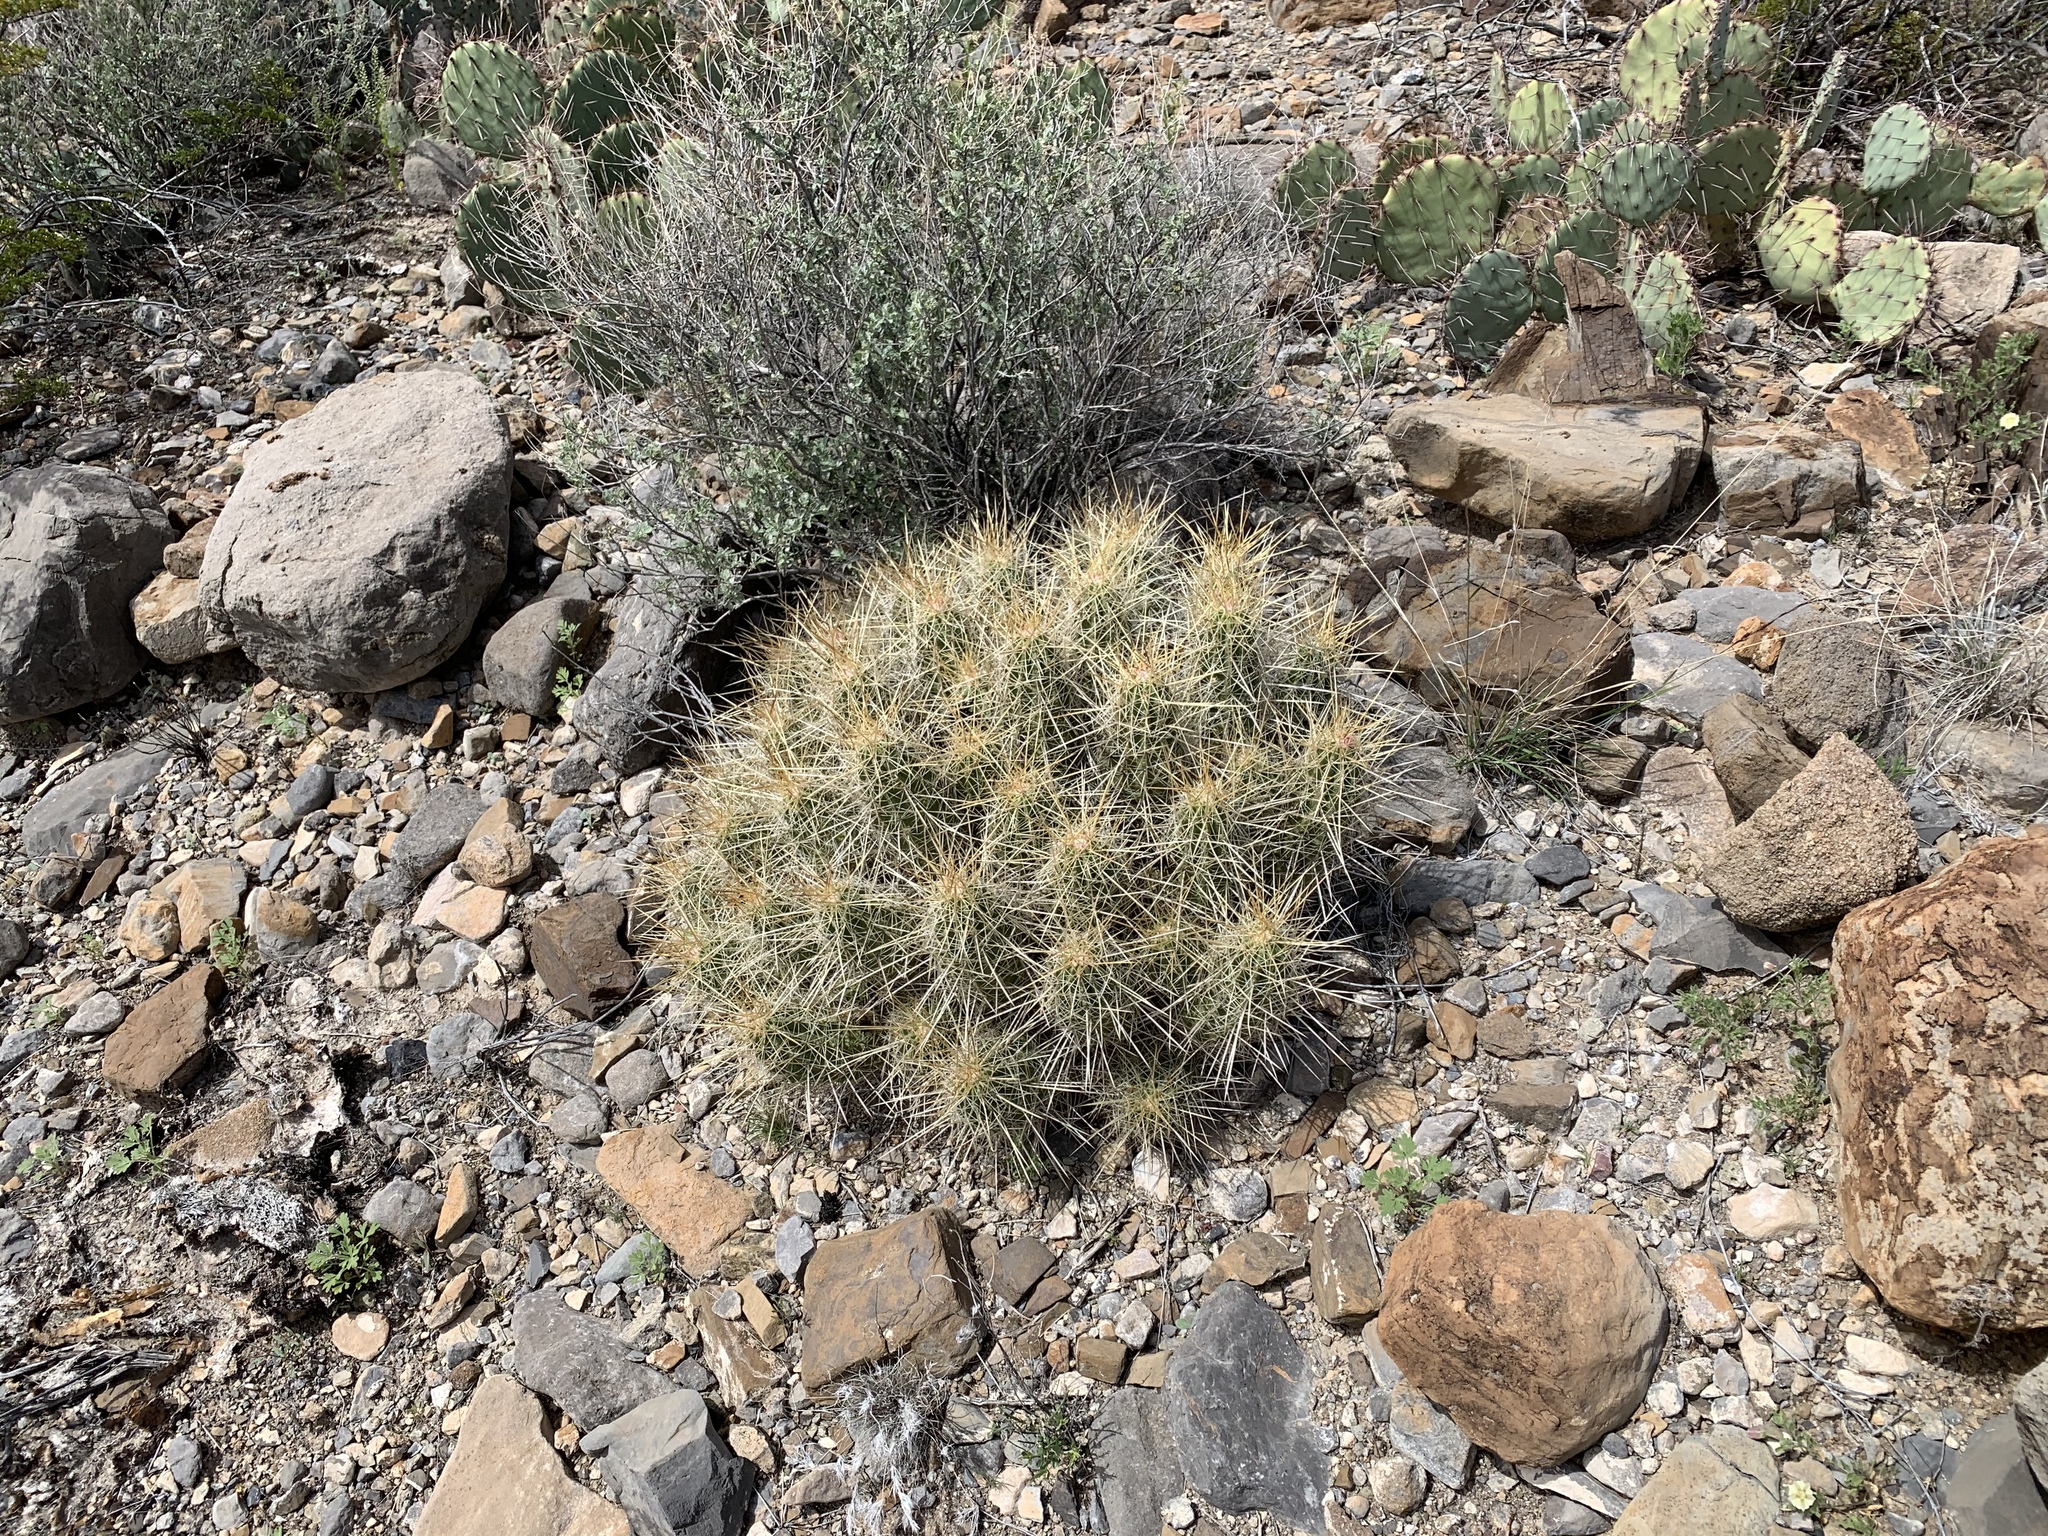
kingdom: Plantae
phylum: Tracheophyta
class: Magnoliopsida
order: Caryophyllales
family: Cactaceae
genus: Echinocereus
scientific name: Echinocereus stramineus
